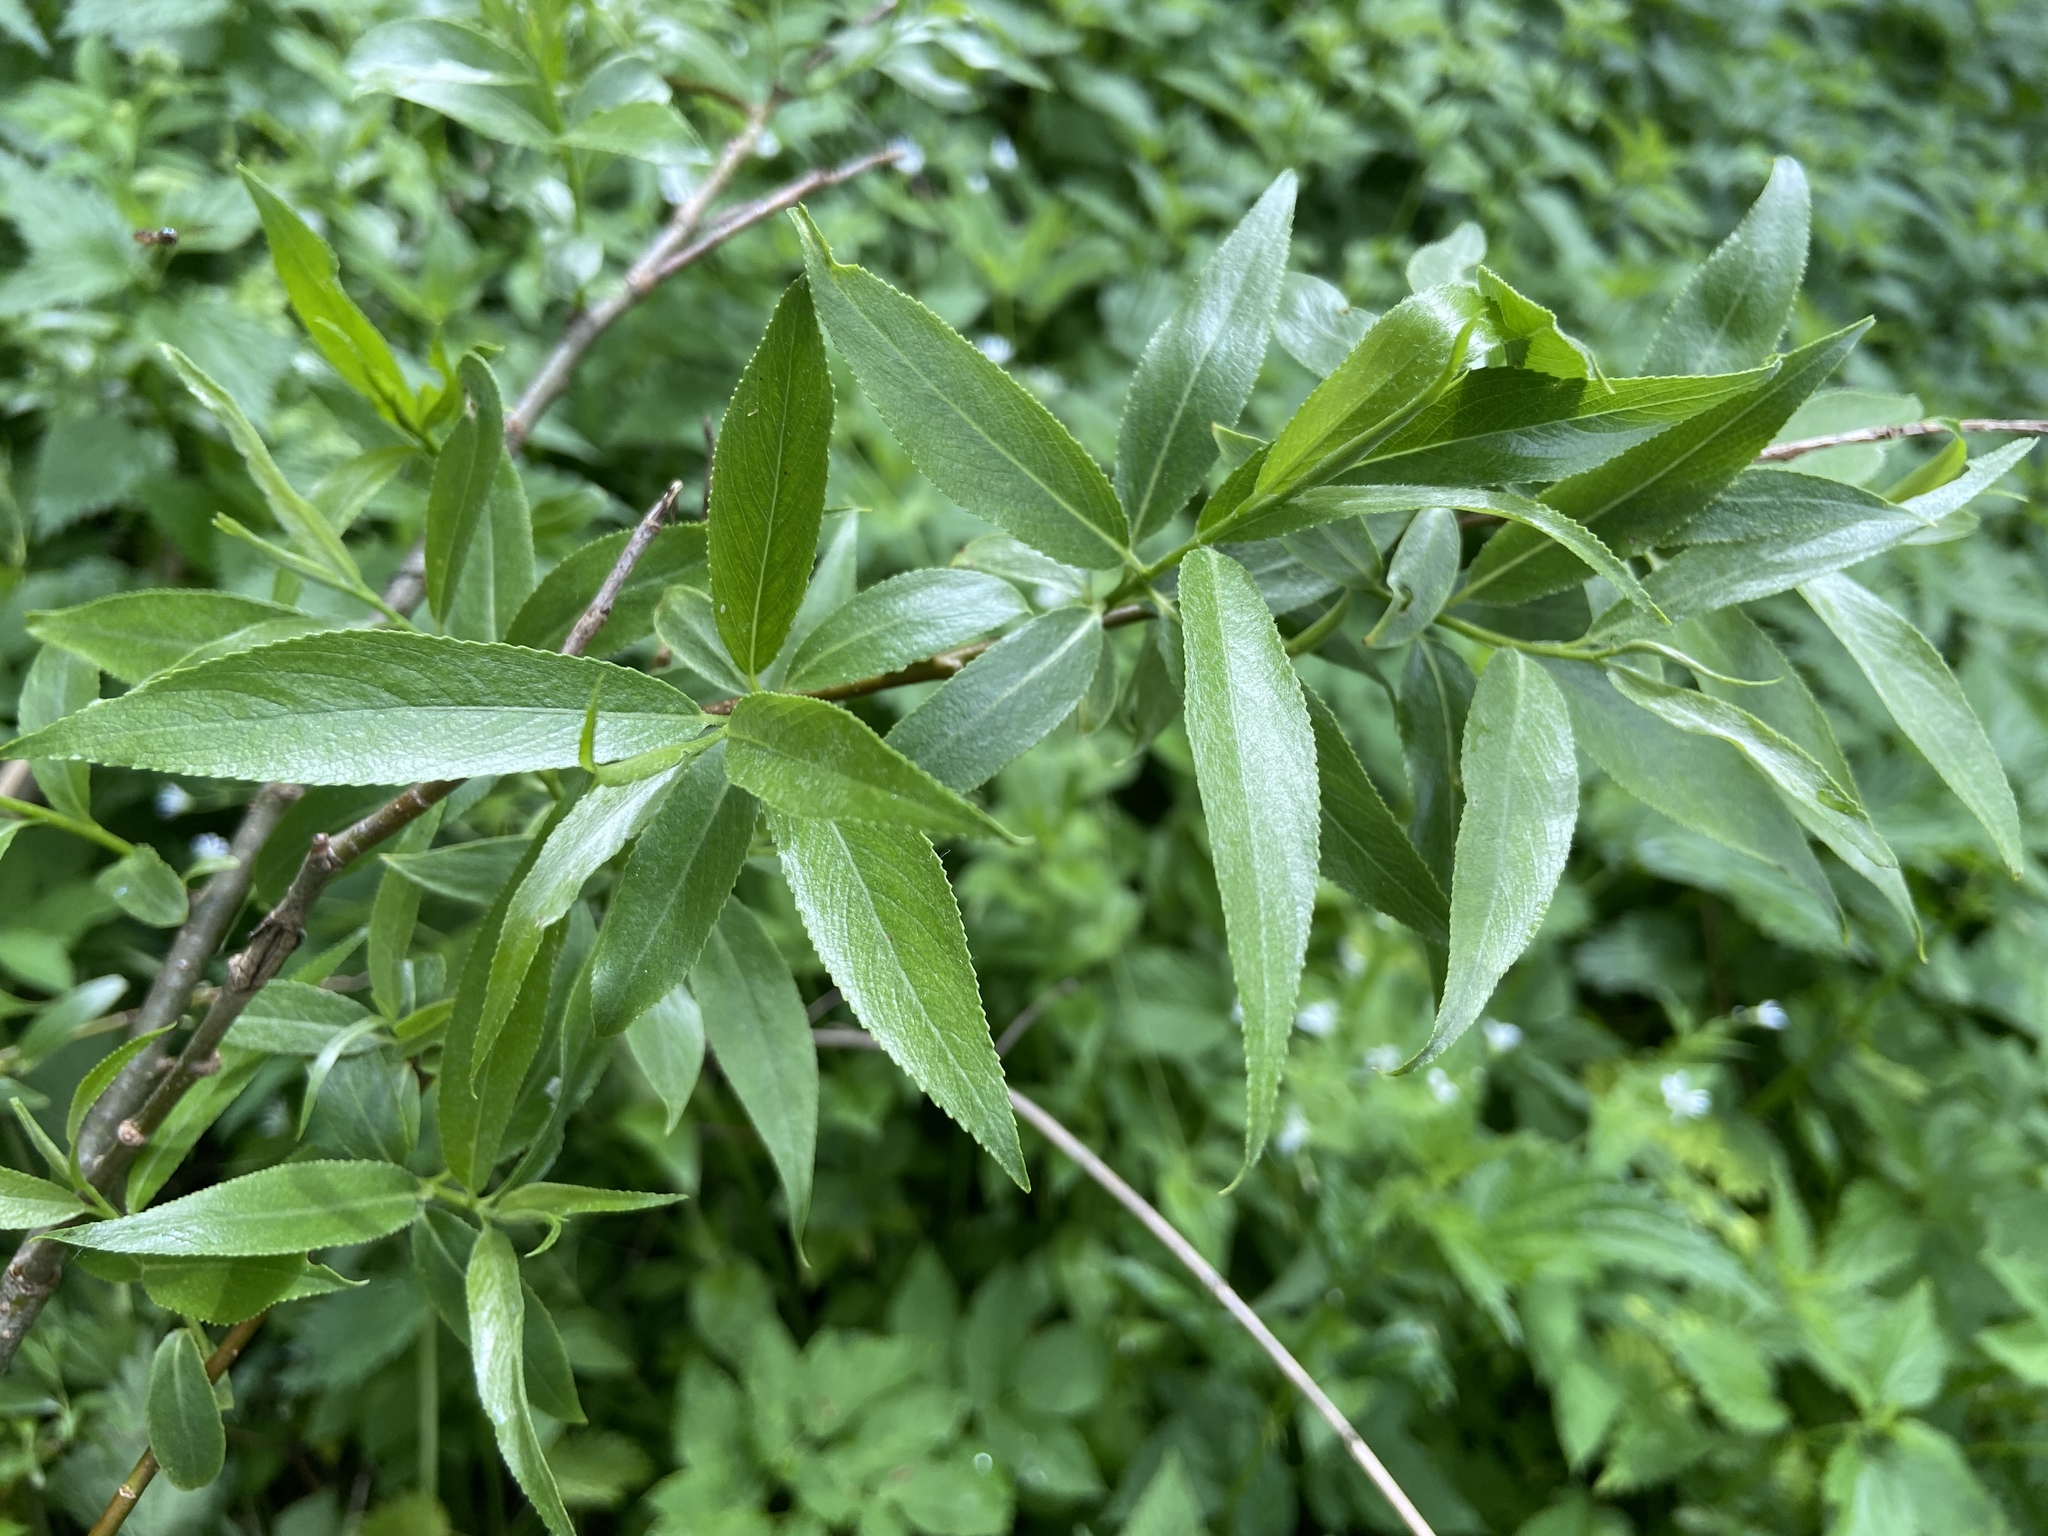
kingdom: Plantae
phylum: Tracheophyta
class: Magnoliopsida
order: Malpighiales
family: Salicaceae
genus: Salix
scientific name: Salix fragilis
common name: Crack willow
